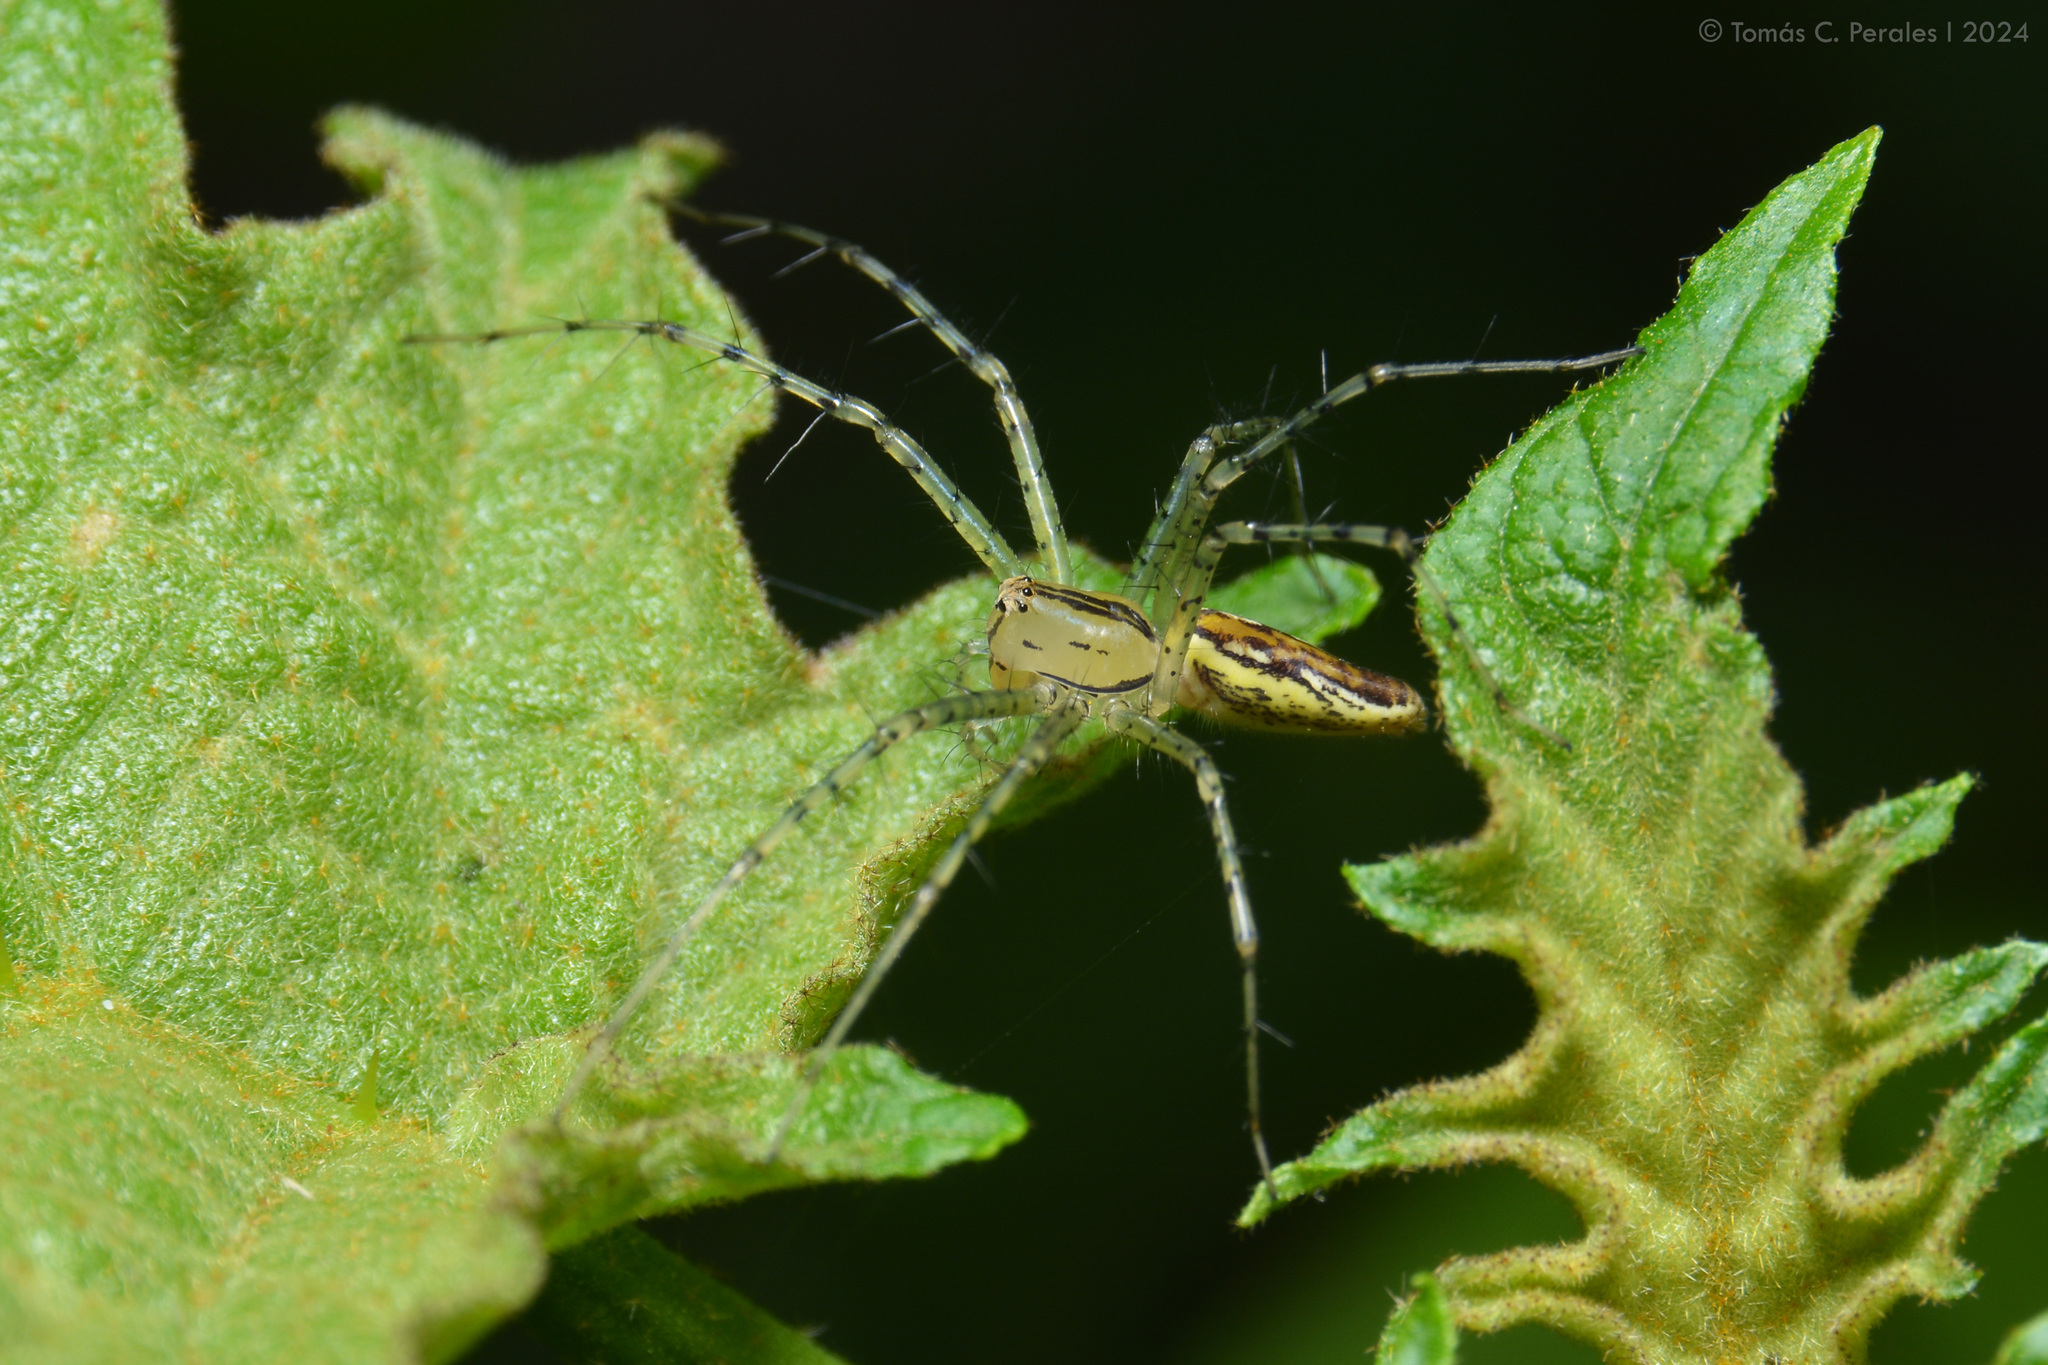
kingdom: Animalia
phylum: Arthropoda
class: Arachnida
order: Araneae
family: Oxyopidae
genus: Peucetia
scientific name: Peucetia rubrolineata
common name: Lynx spiders
